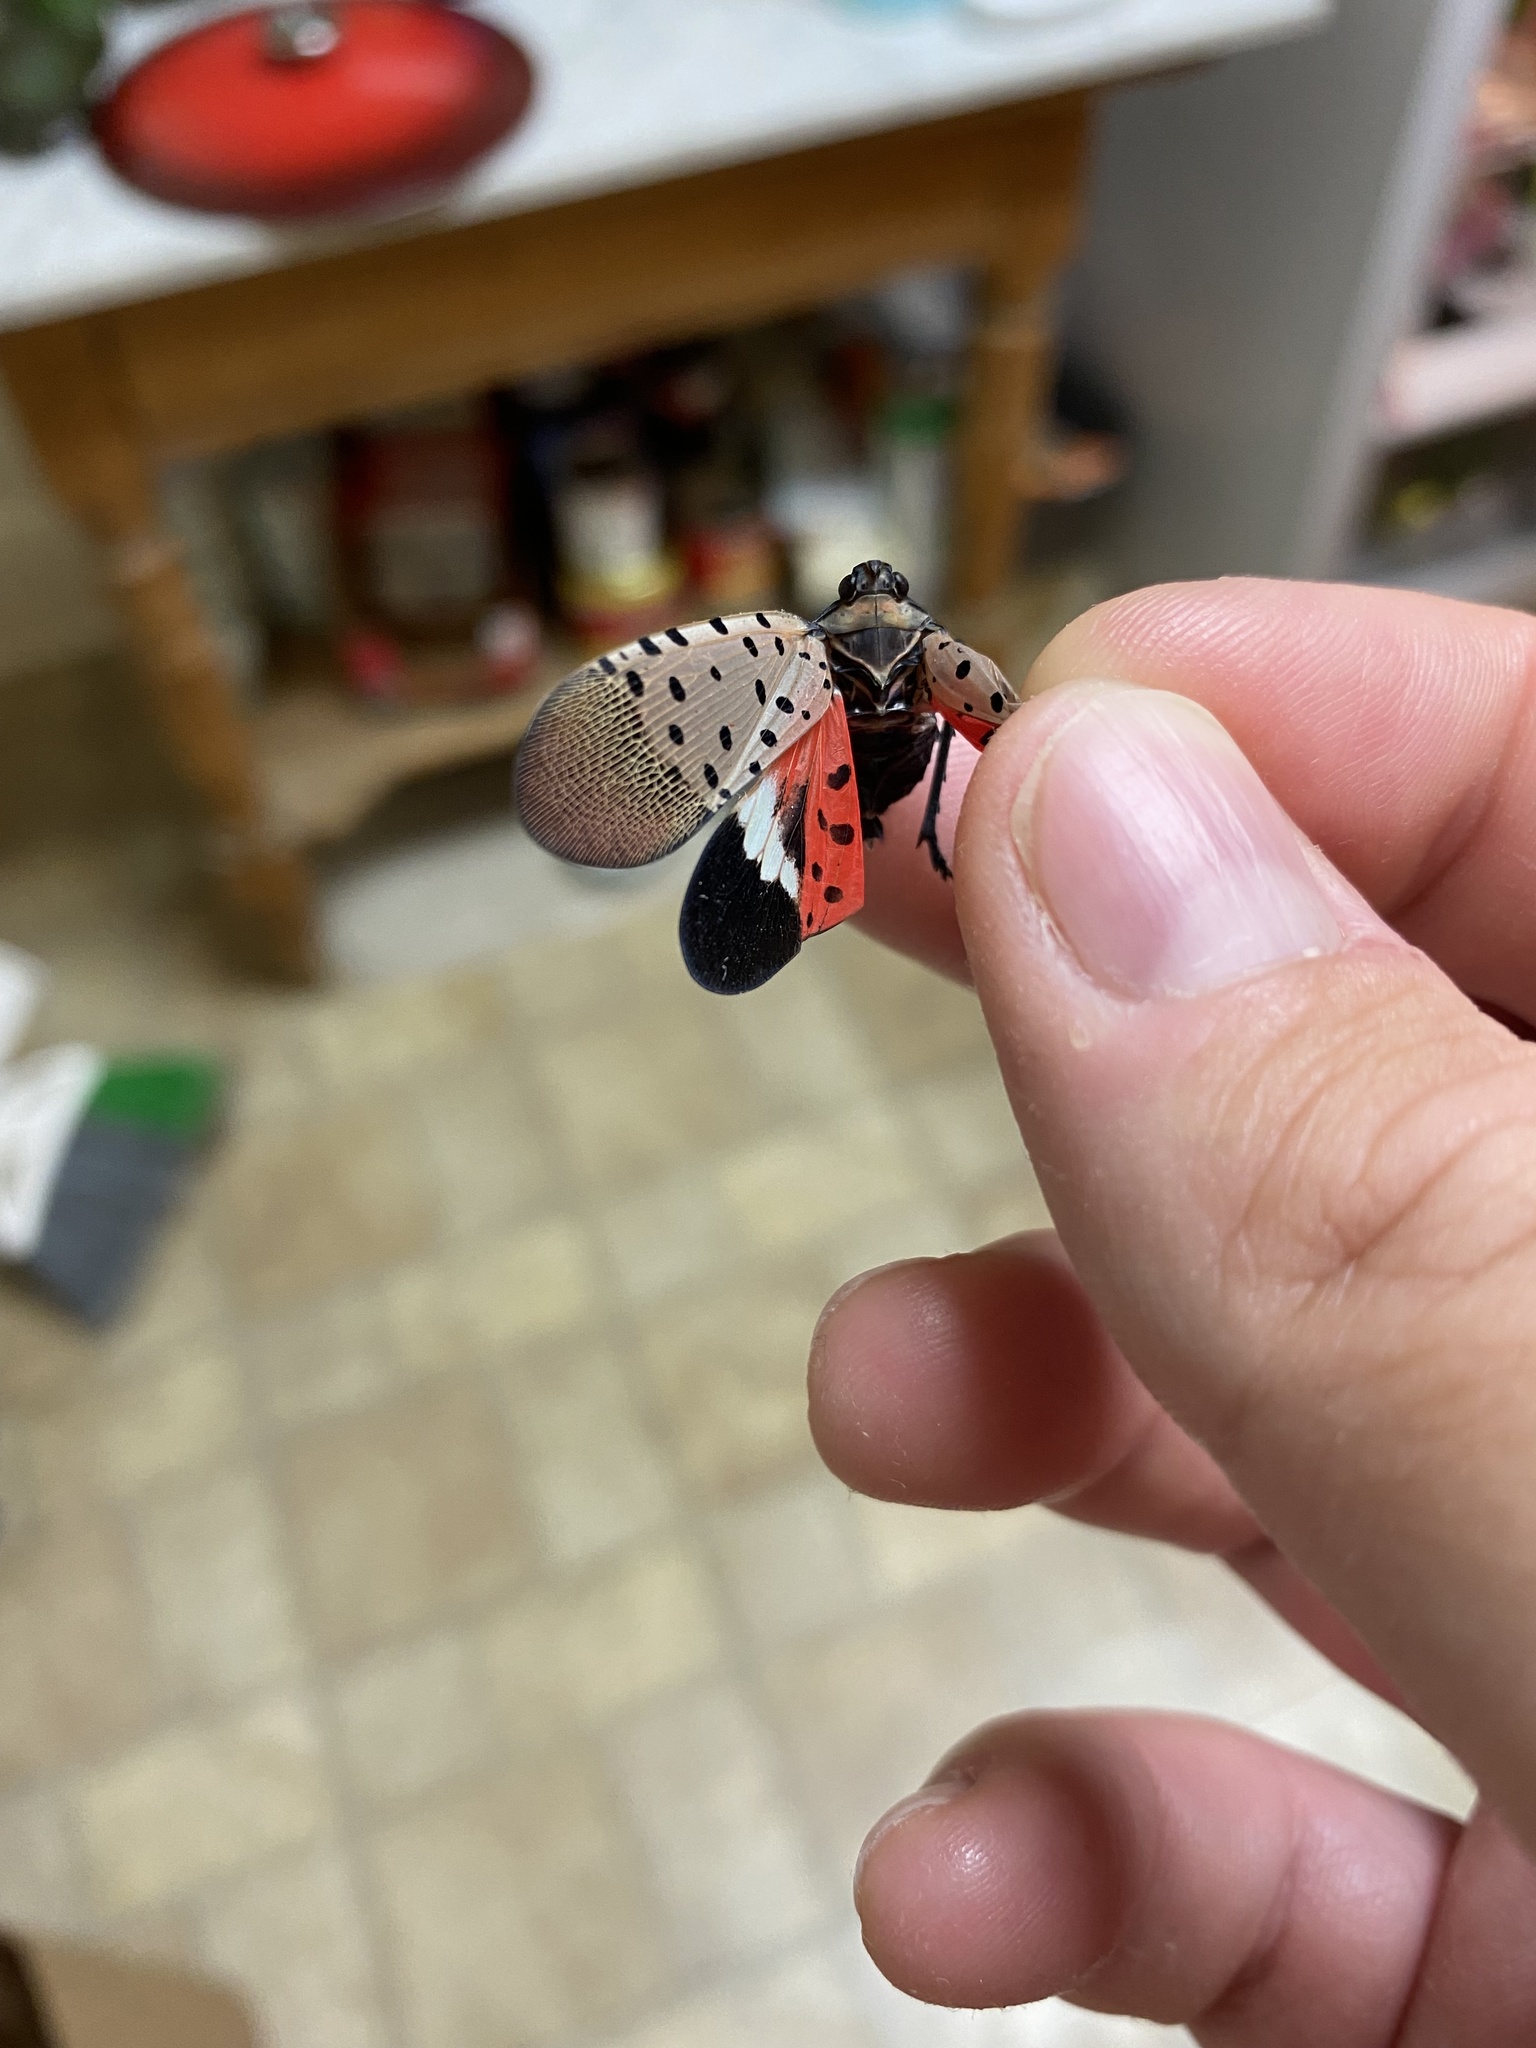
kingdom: Animalia
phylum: Arthropoda
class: Insecta
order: Hemiptera
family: Fulgoridae
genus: Lycorma
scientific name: Lycorma delicatula
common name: Spotted lanternfly
